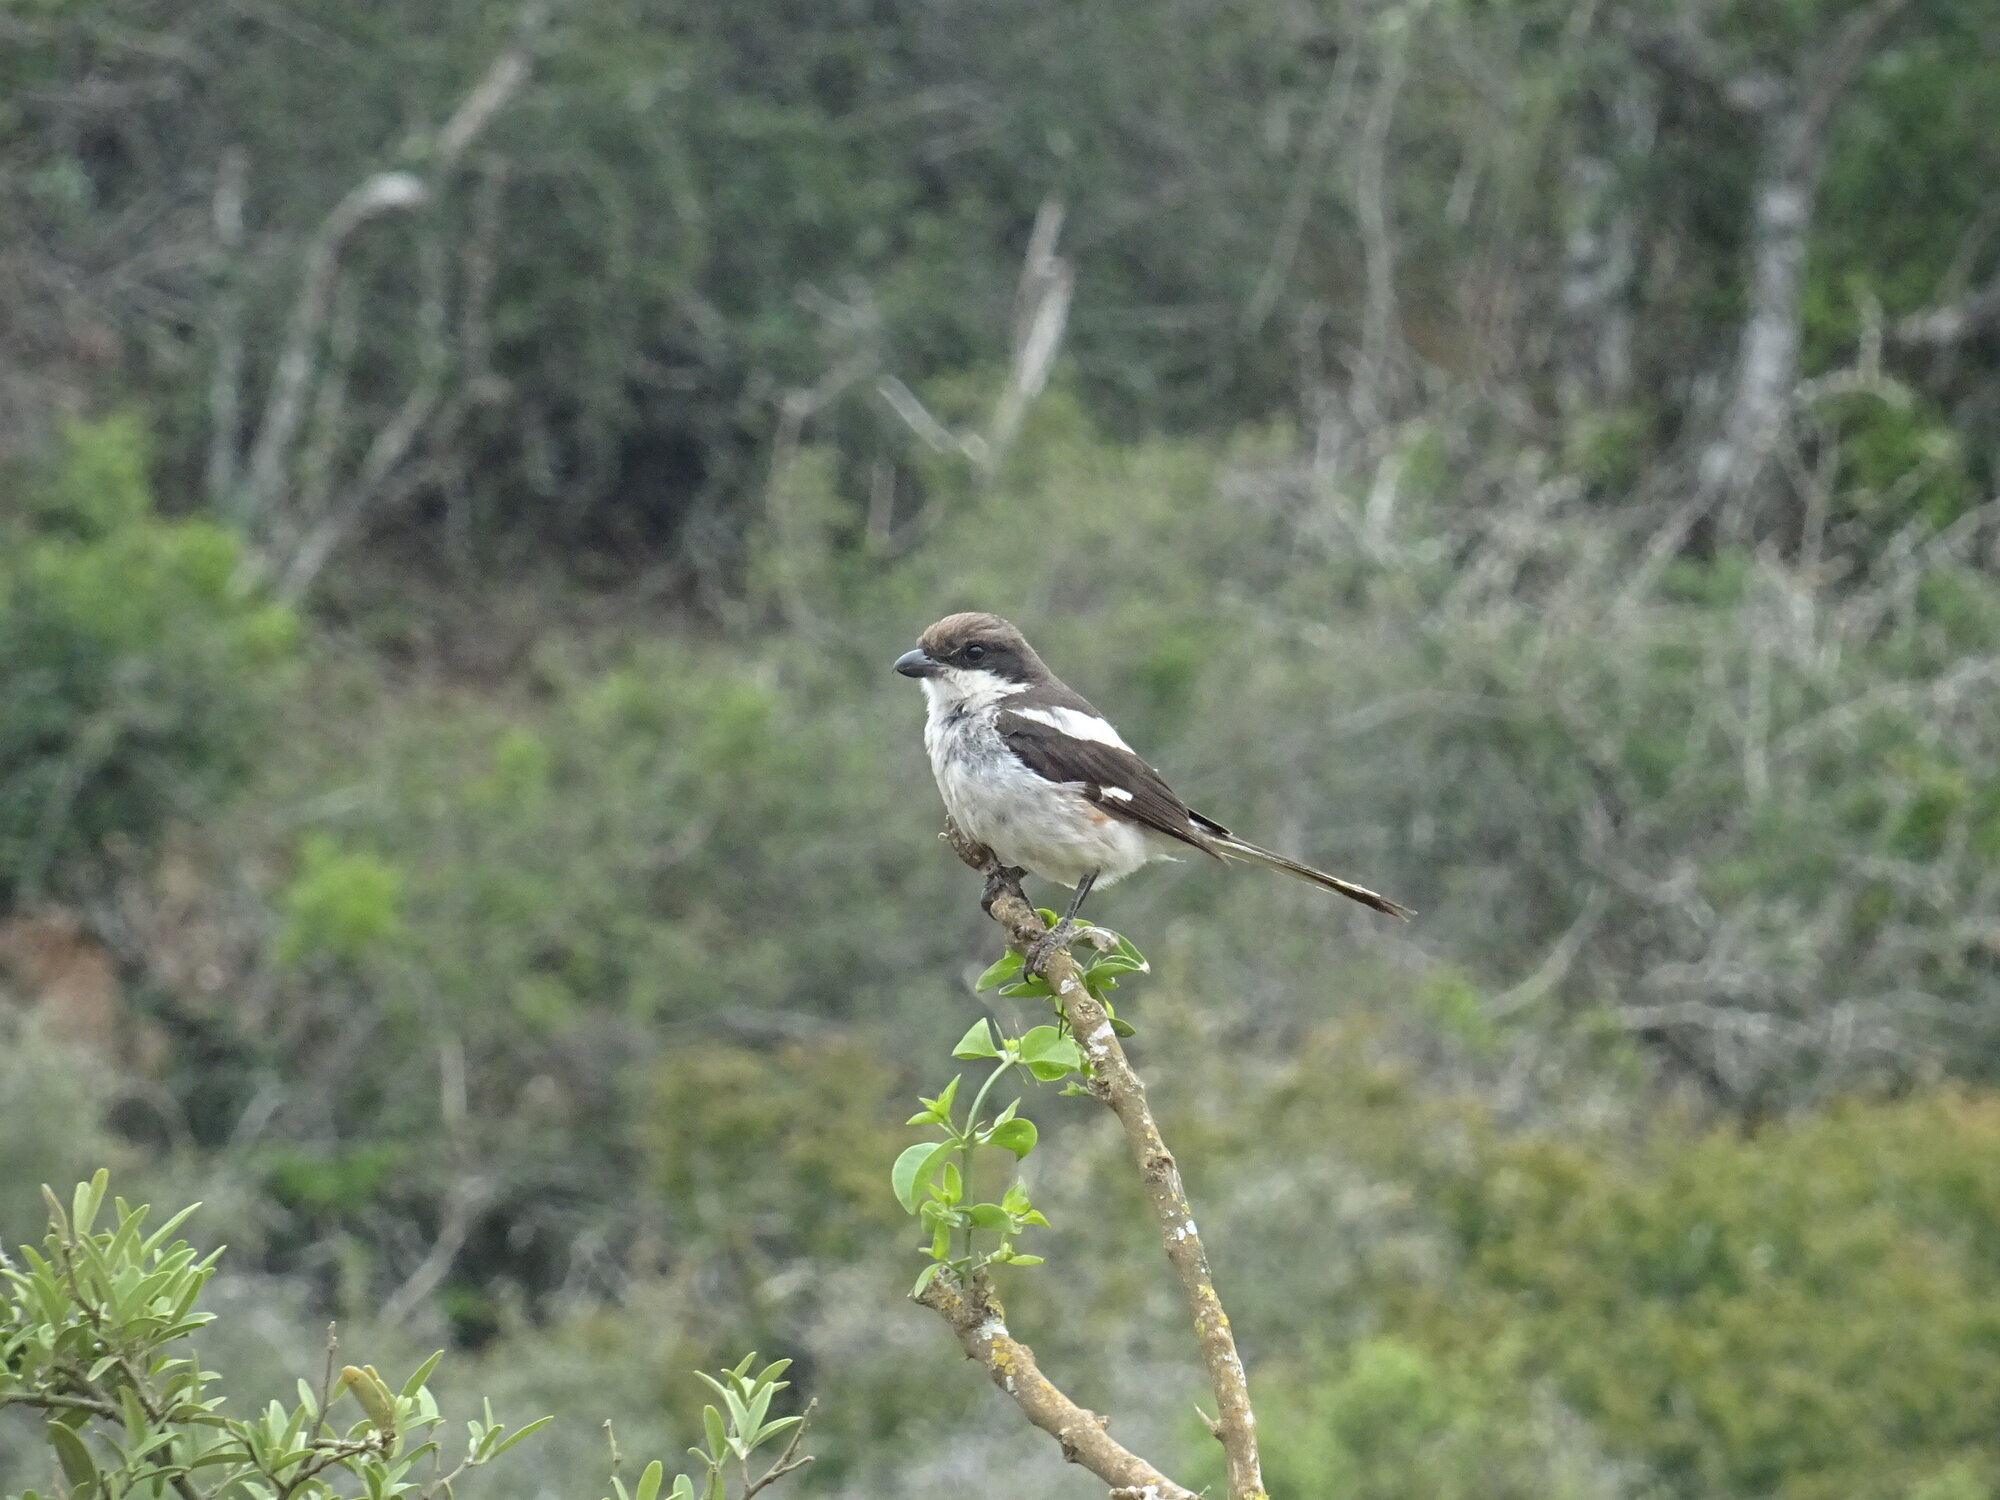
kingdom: Animalia
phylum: Chordata
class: Aves
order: Passeriformes
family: Laniidae
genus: Lanius
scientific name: Lanius collaris
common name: Southern fiscal
